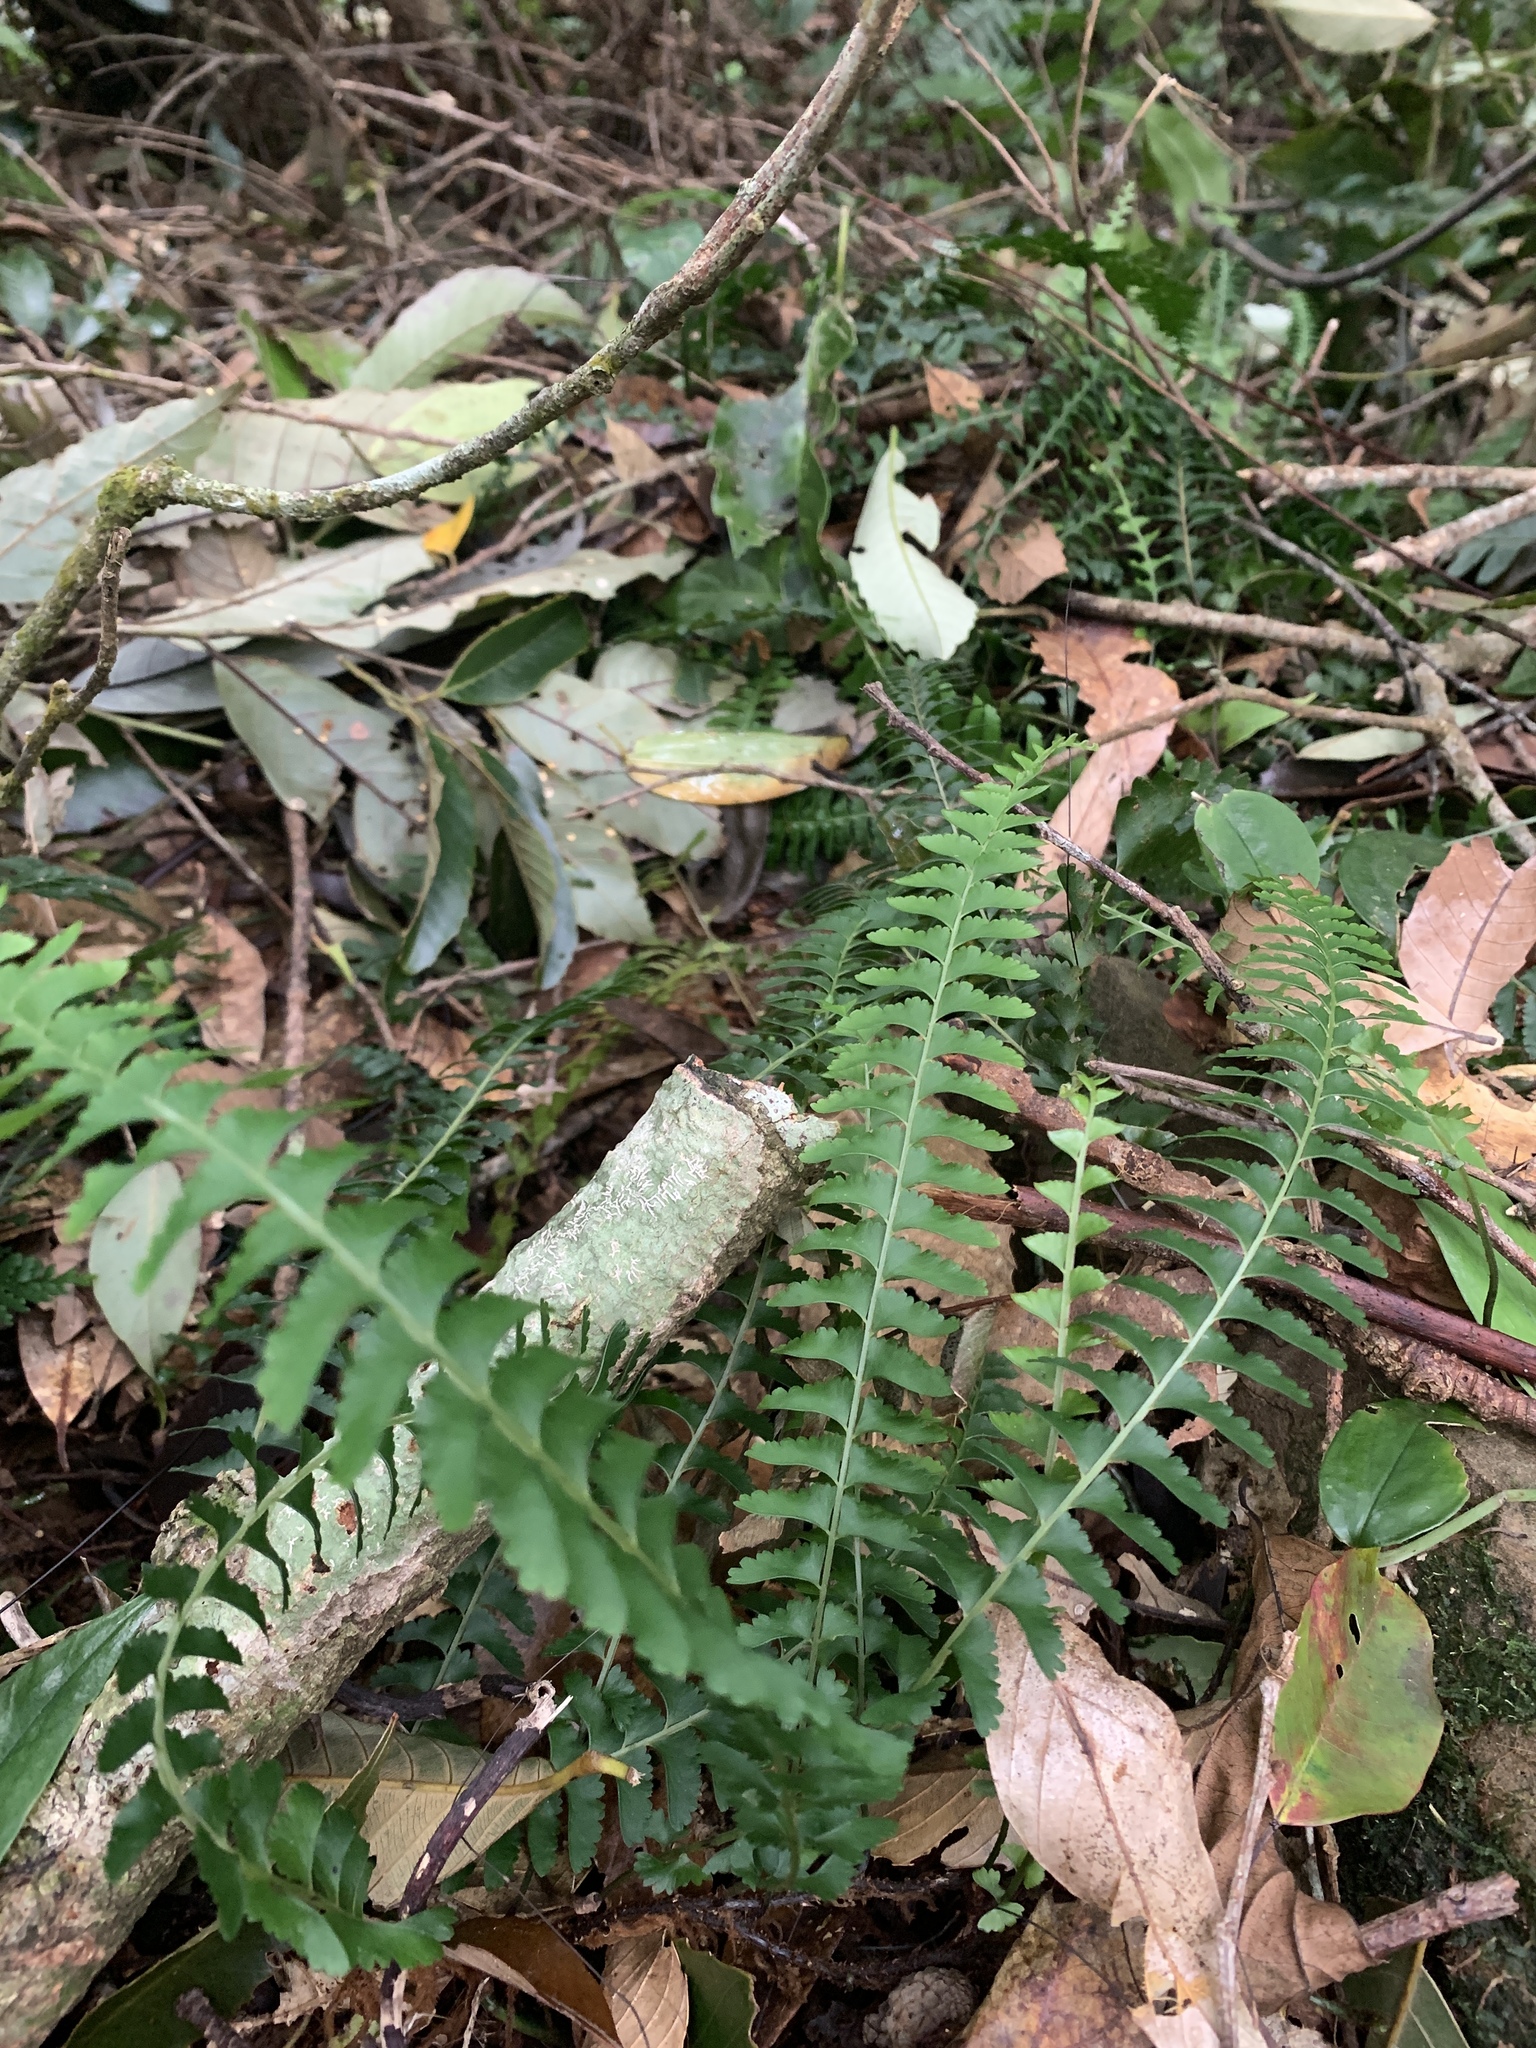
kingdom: Plantae
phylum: Tracheophyta
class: Polypodiopsida
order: Polypodiales
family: Lindsaeaceae
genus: Lindsaea
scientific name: Lindsaea yaeyamensis
